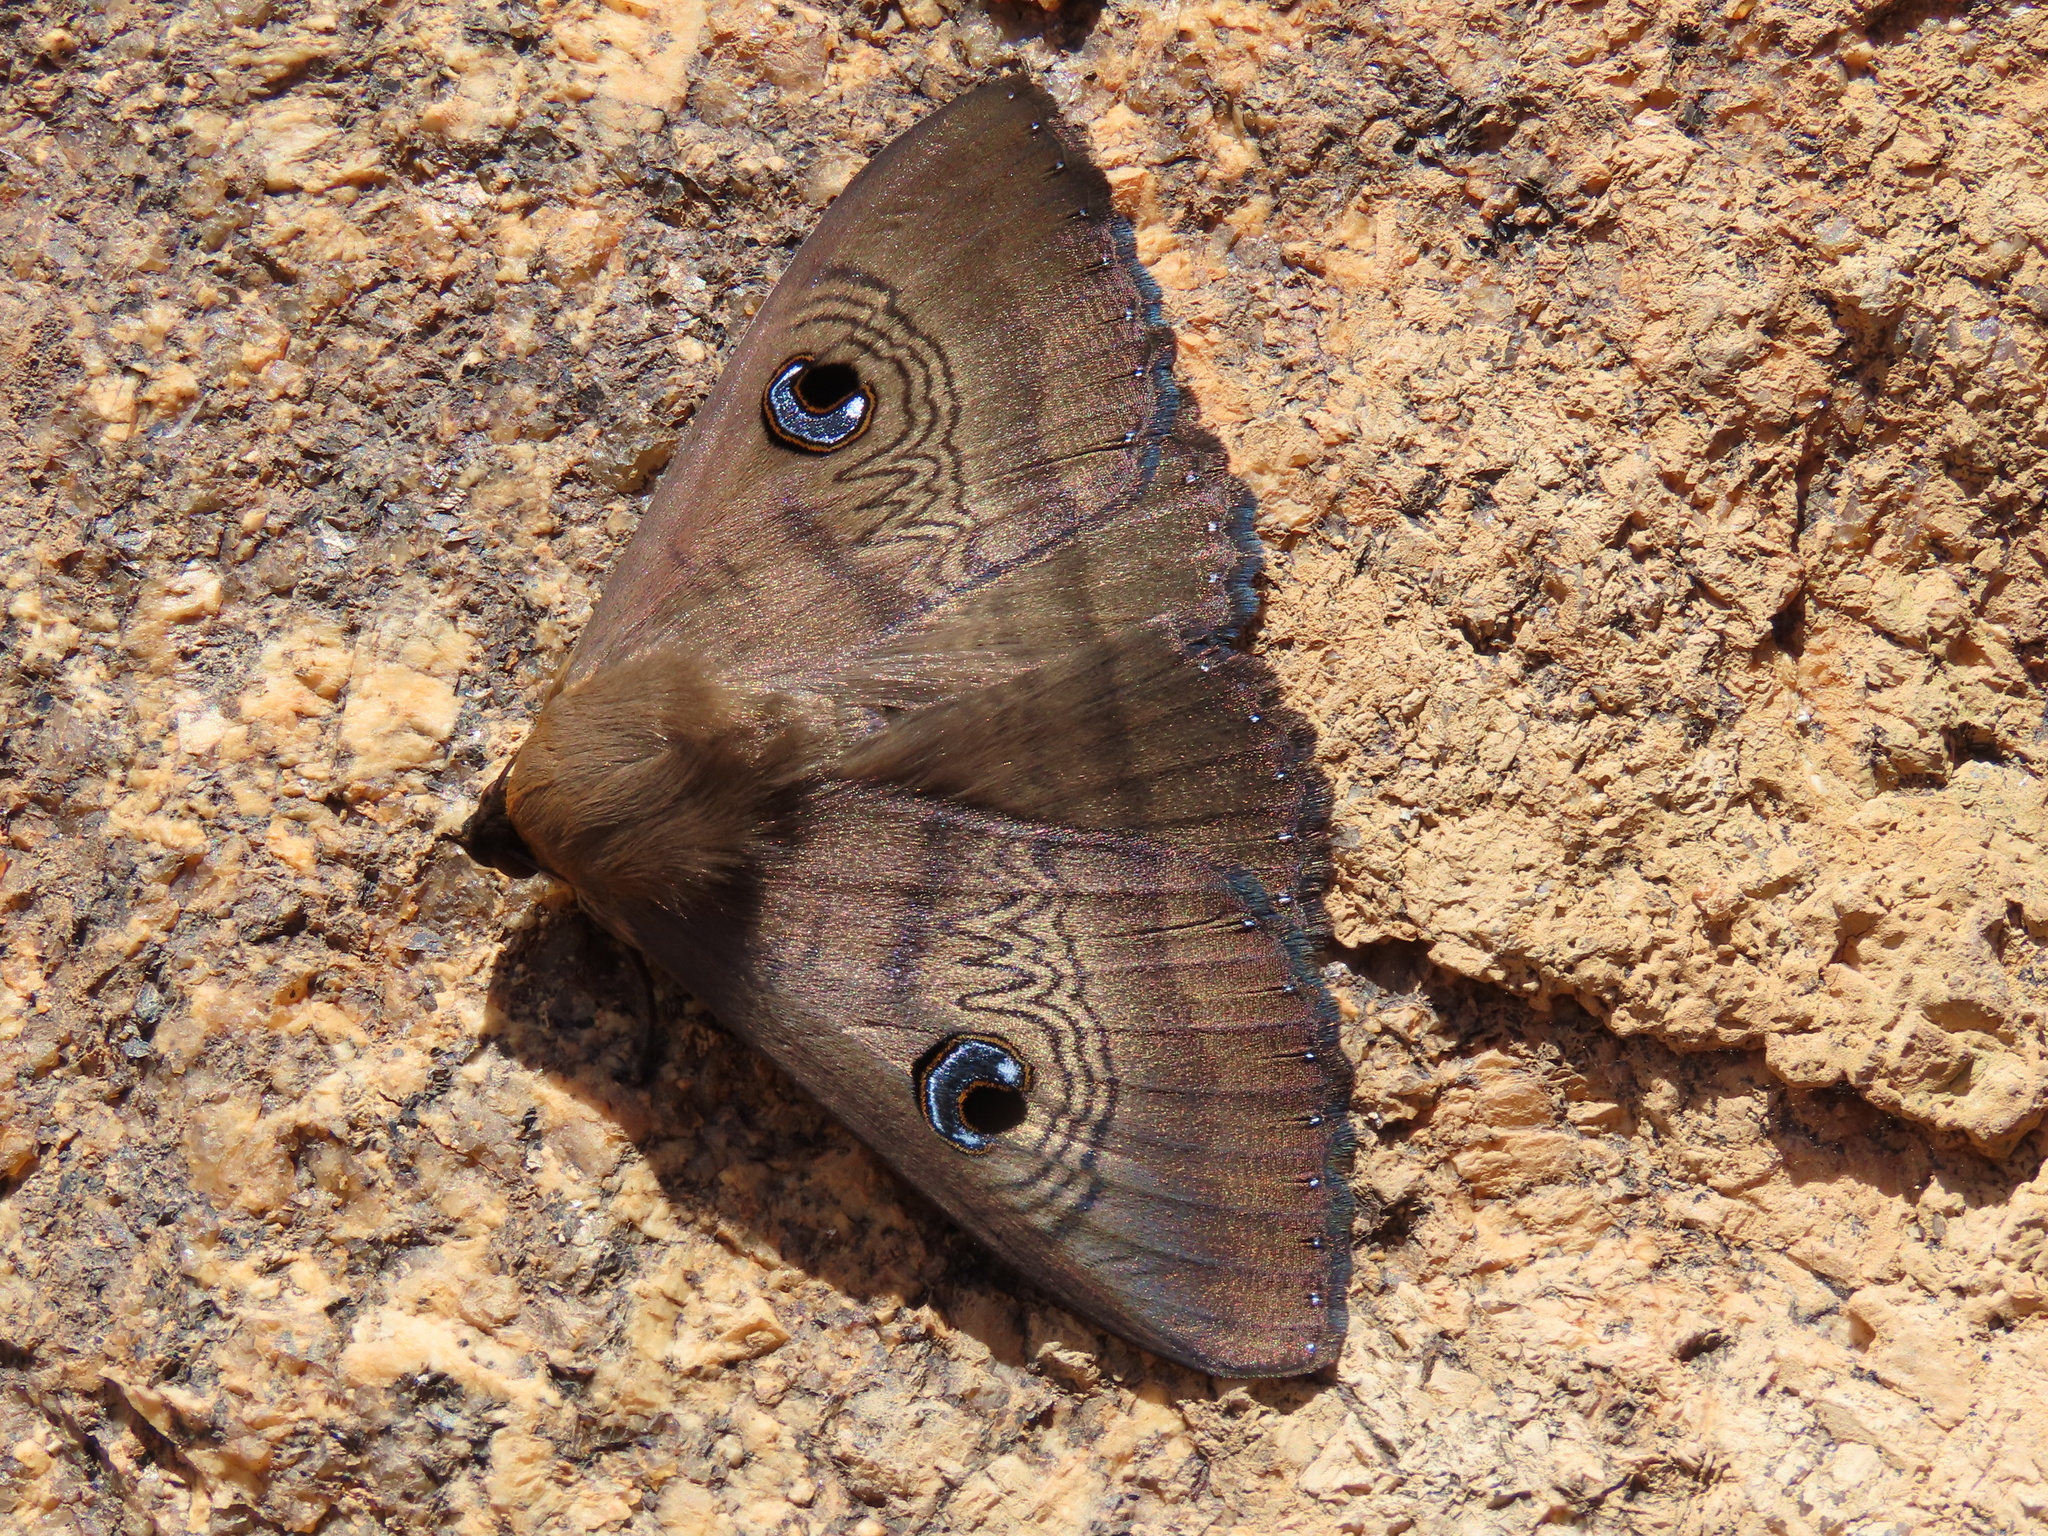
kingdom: Animalia
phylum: Arthropoda
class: Insecta
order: Lepidoptera
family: Erebidae
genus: Dasypodia
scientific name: Dasypodia selenophora
